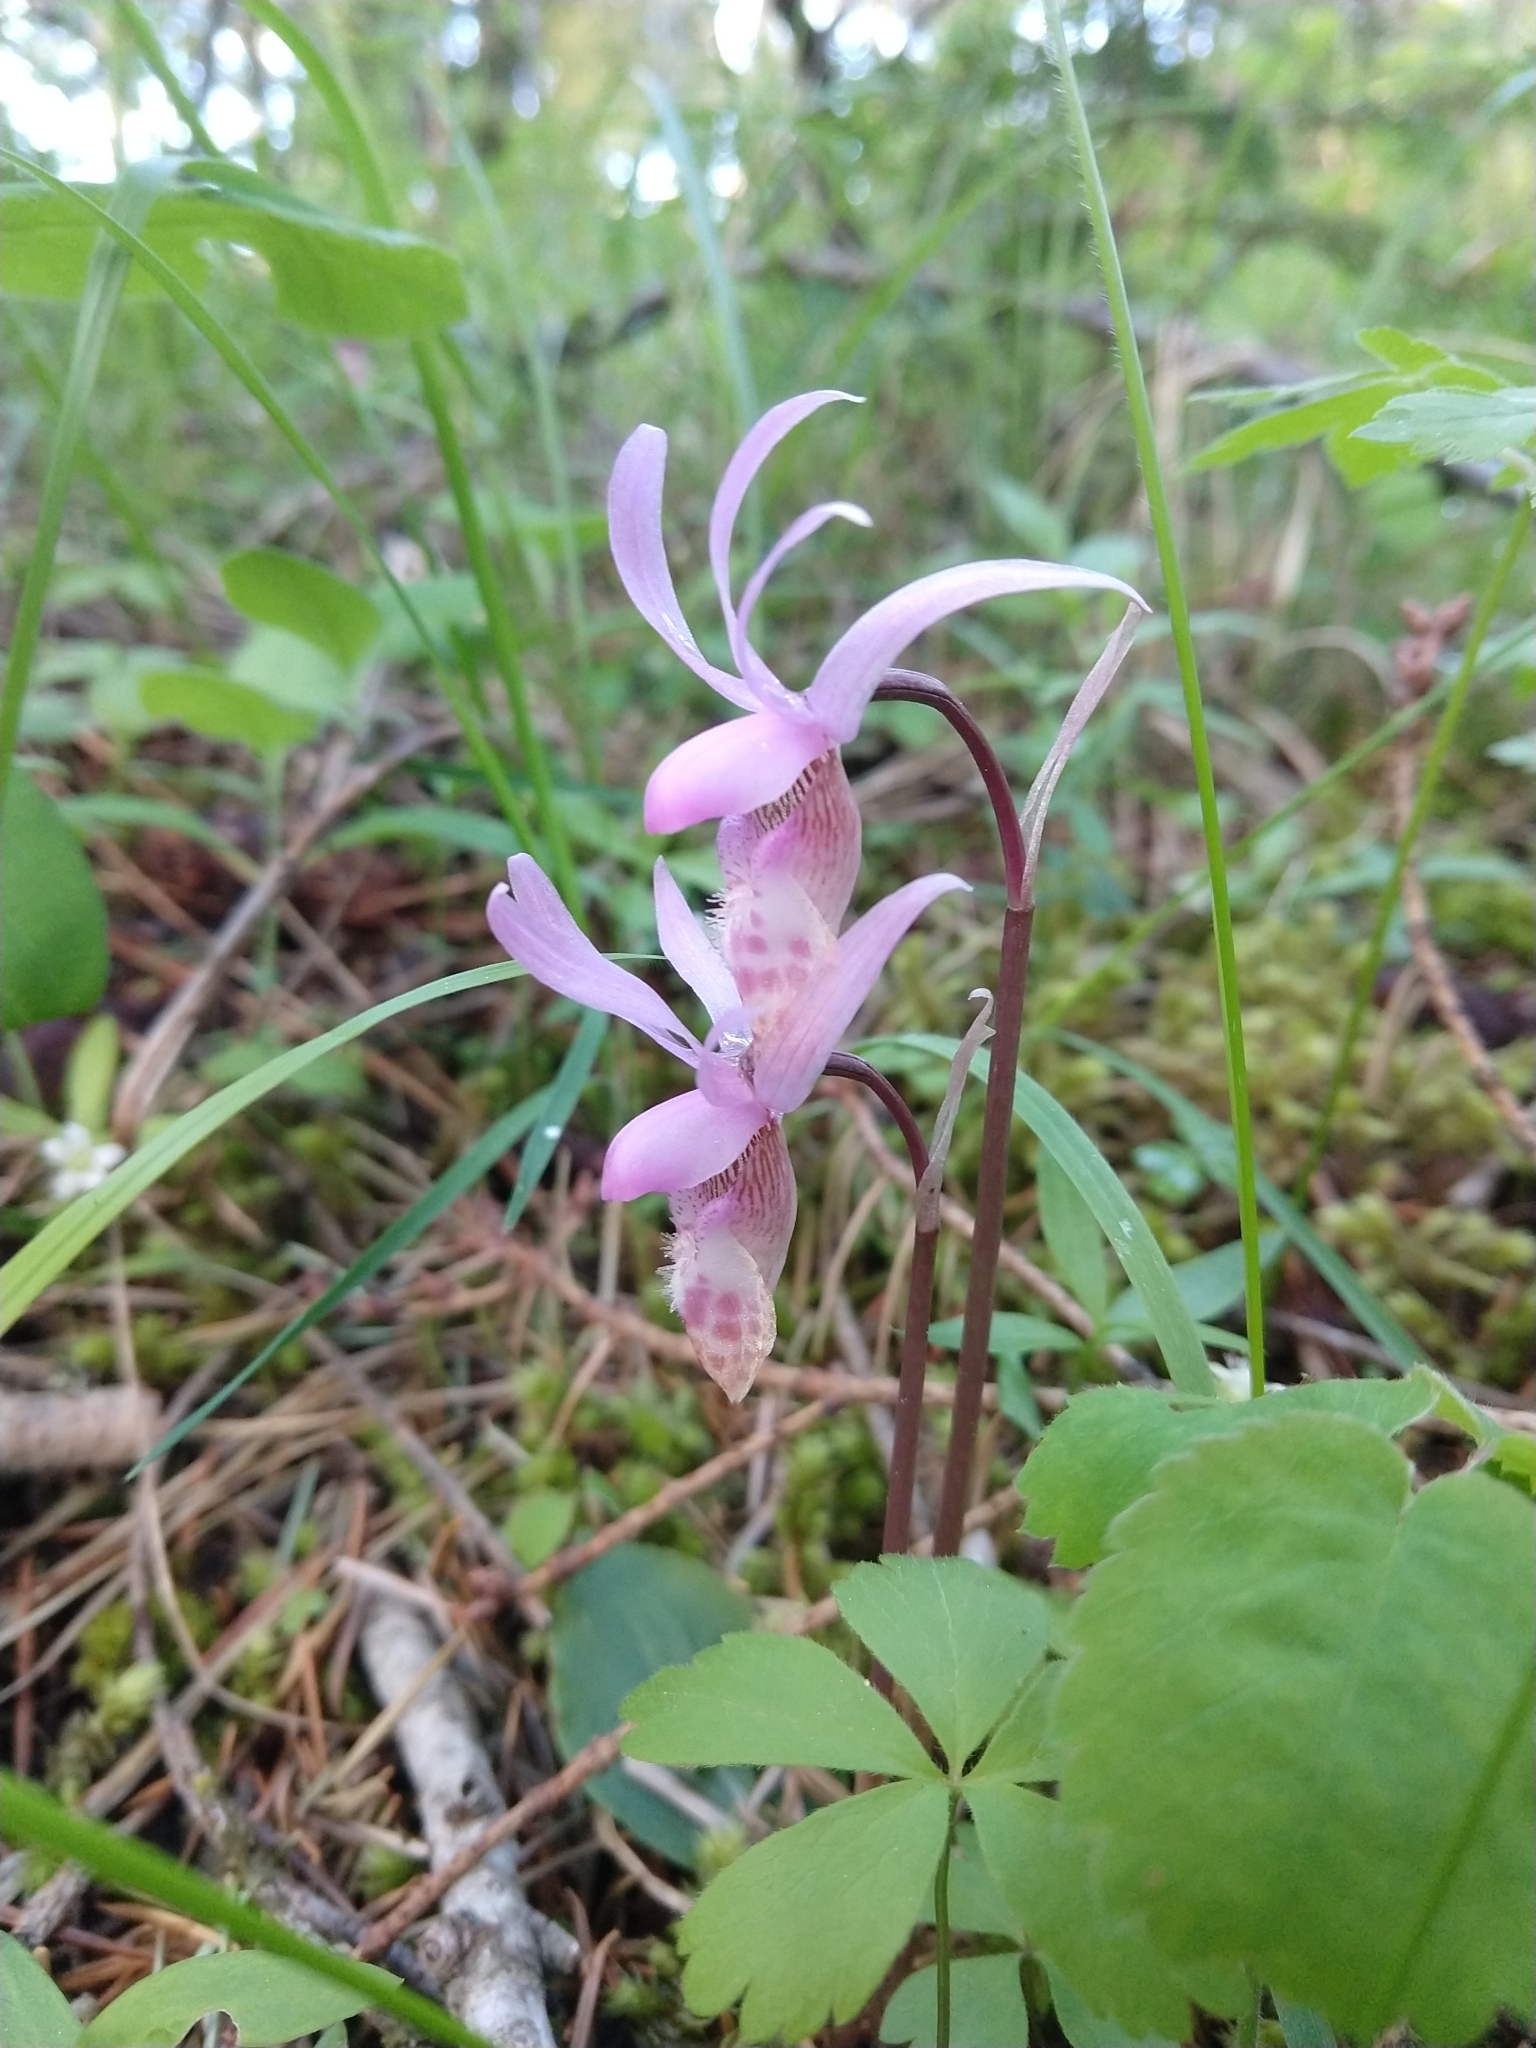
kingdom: Plantae
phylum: Tracheophyta
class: Liliopsida
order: Asparagales
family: Orchidaceae
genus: Calypso
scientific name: Calypso bulbosa
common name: Calypso
